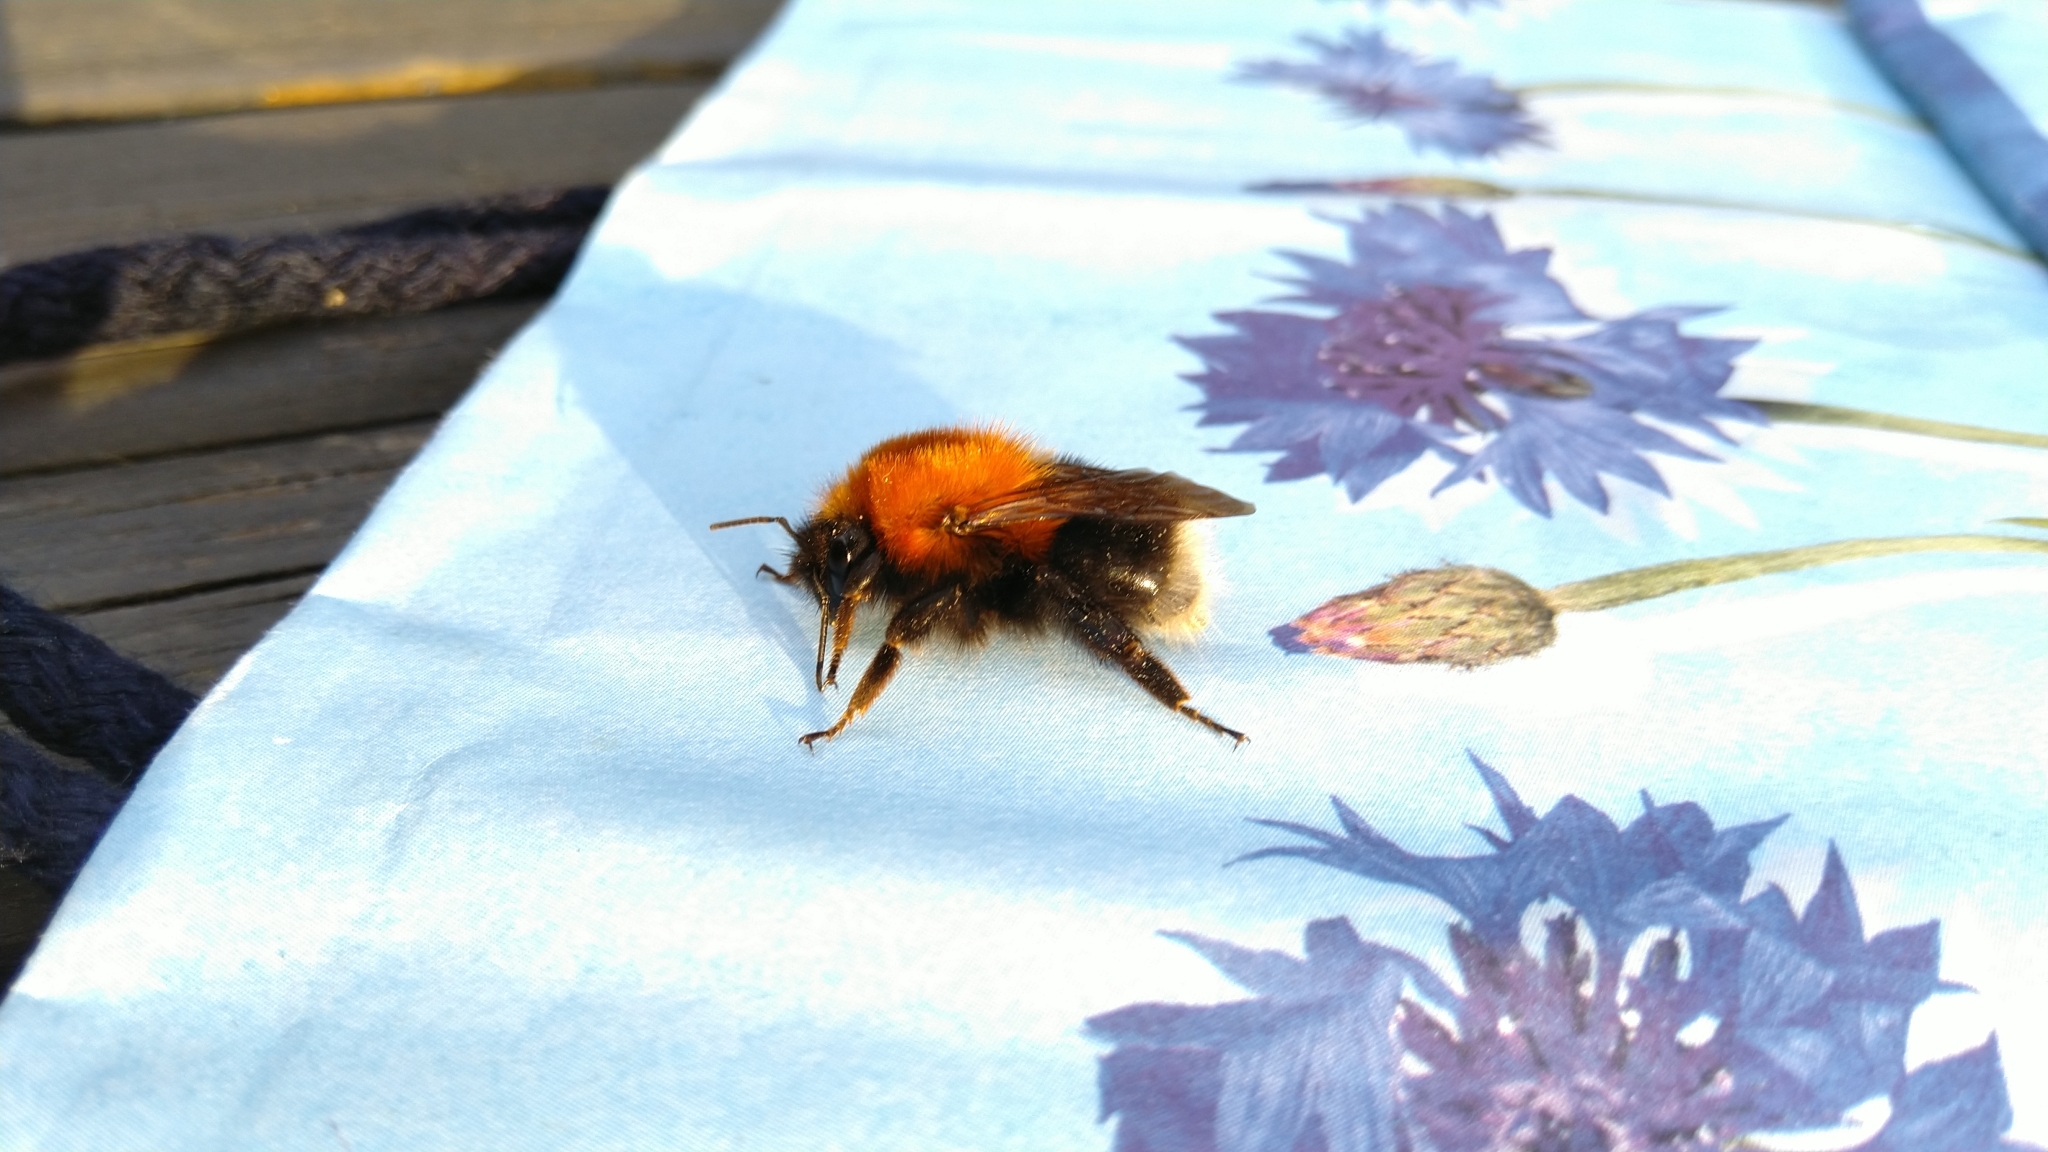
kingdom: Animalia
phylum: Arthropoda
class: Insecta
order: Hymenoptera
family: Apidae
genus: Bombus
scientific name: Bombus hypnorum
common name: New garden bumblebee
